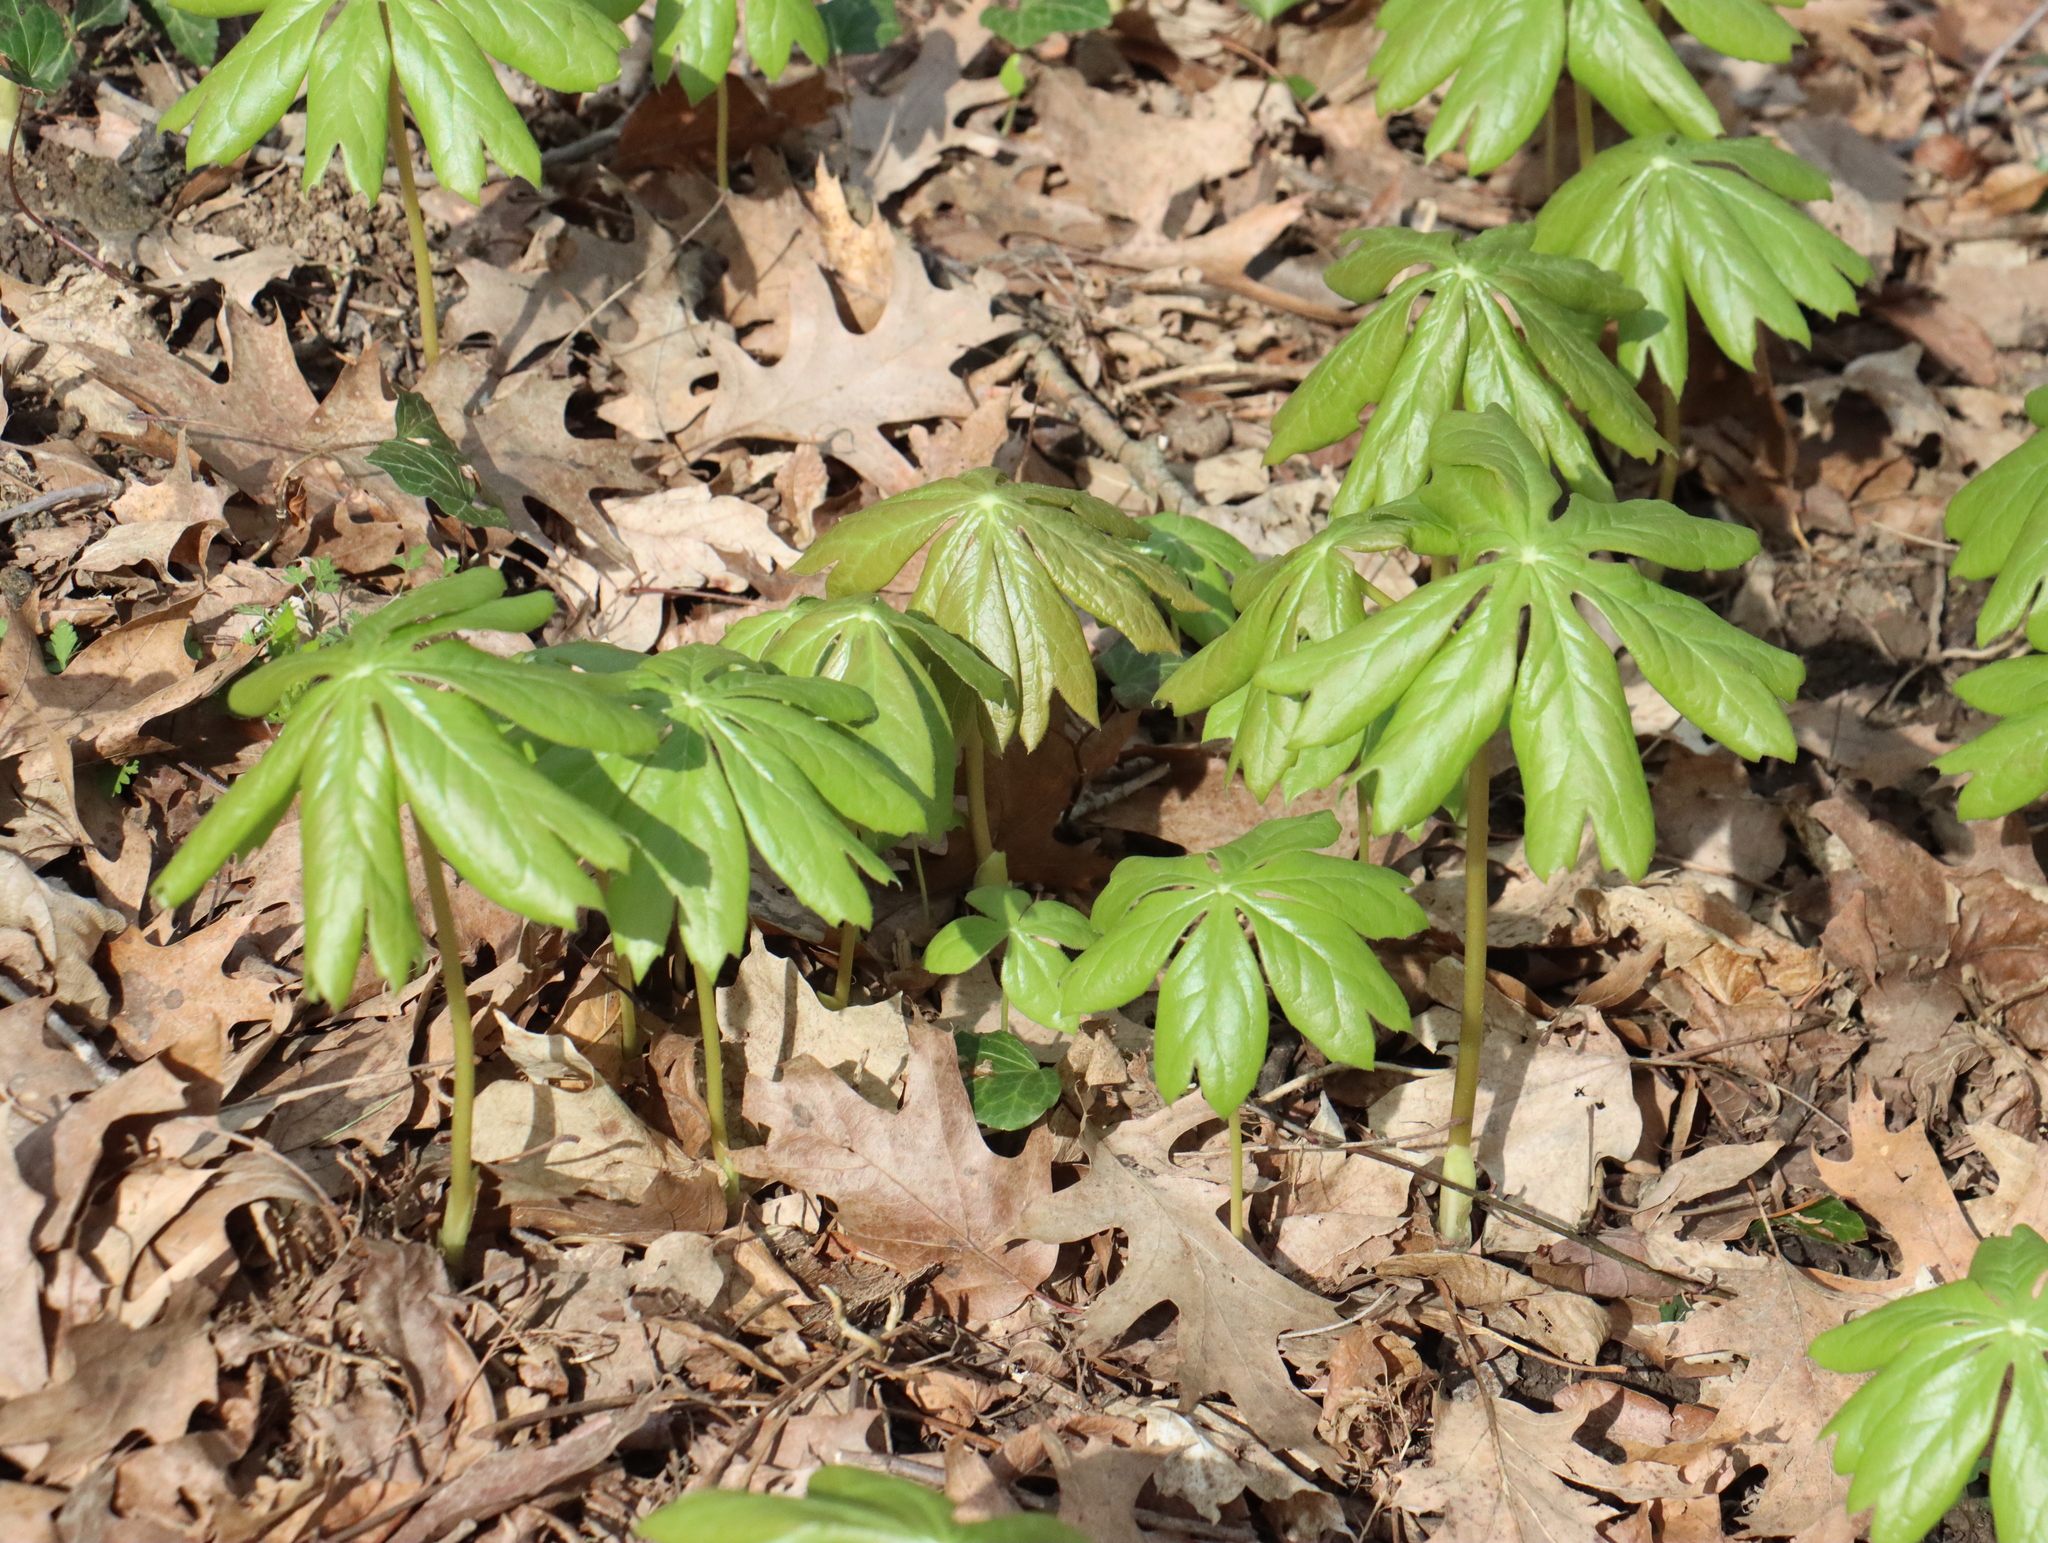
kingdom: Plantae
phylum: Tracheophyta
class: Magnoliopsida
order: Ranunculales
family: Berberidaceae
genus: Podophyllum
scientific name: Podophyllum peltatum
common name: Wild mandrake
